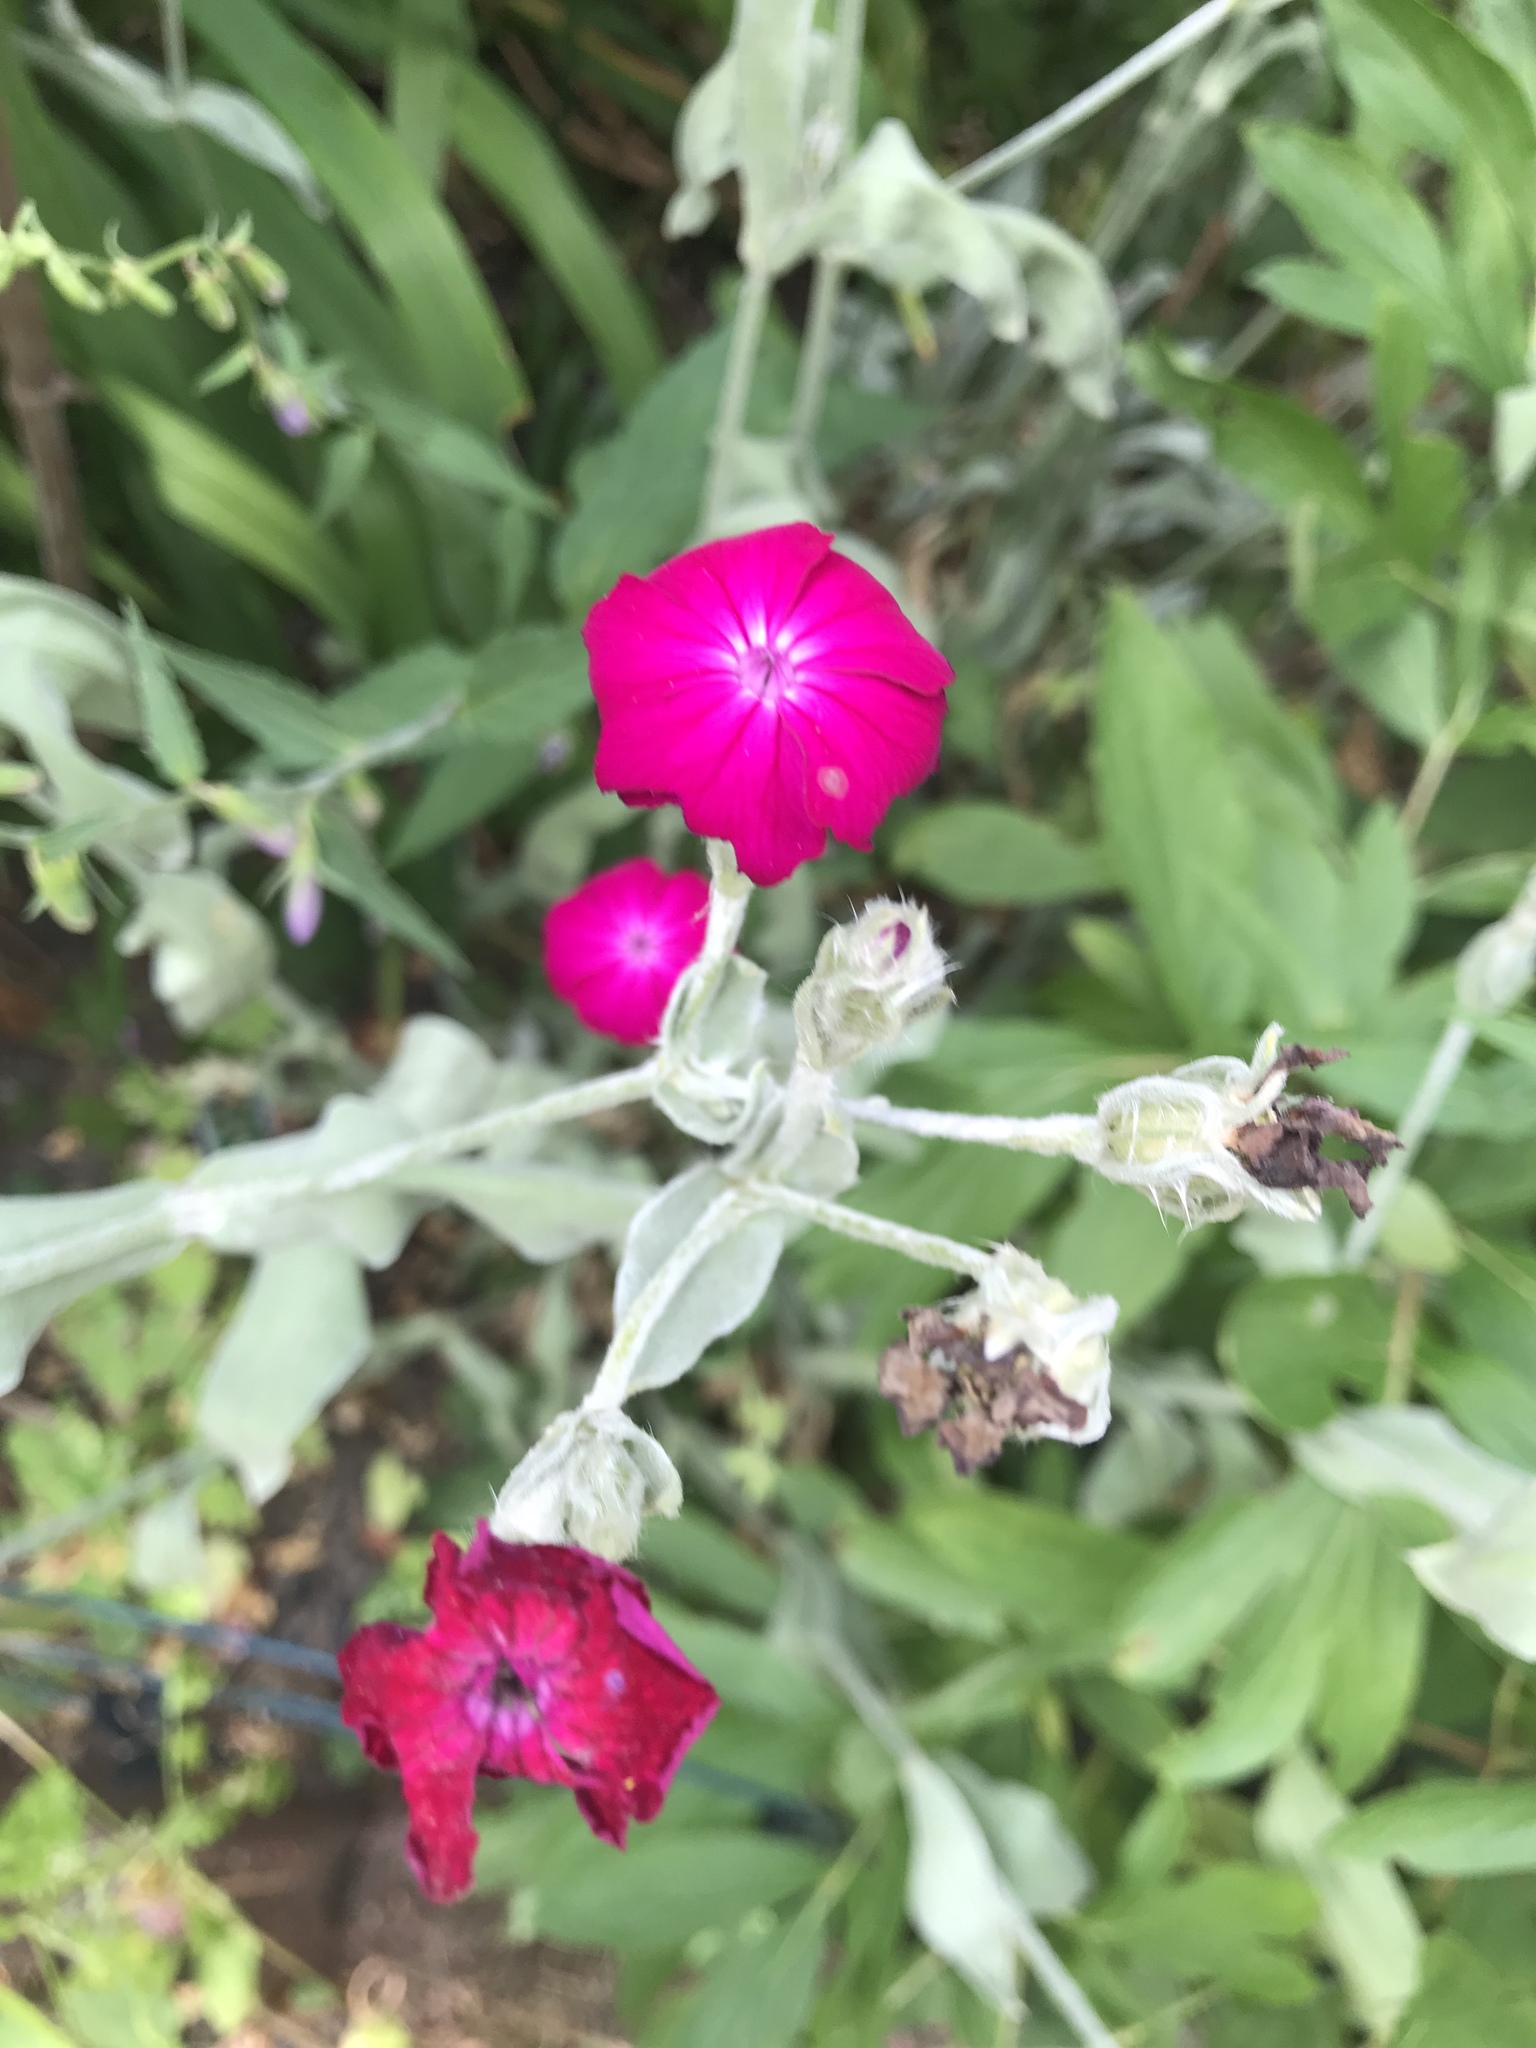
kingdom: Plantae
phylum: Tracheophyta
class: Magnoliopsida
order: Caryophyllales
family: Caryophyllaceae
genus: Silene
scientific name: Silene coronaria
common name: Rose campion
